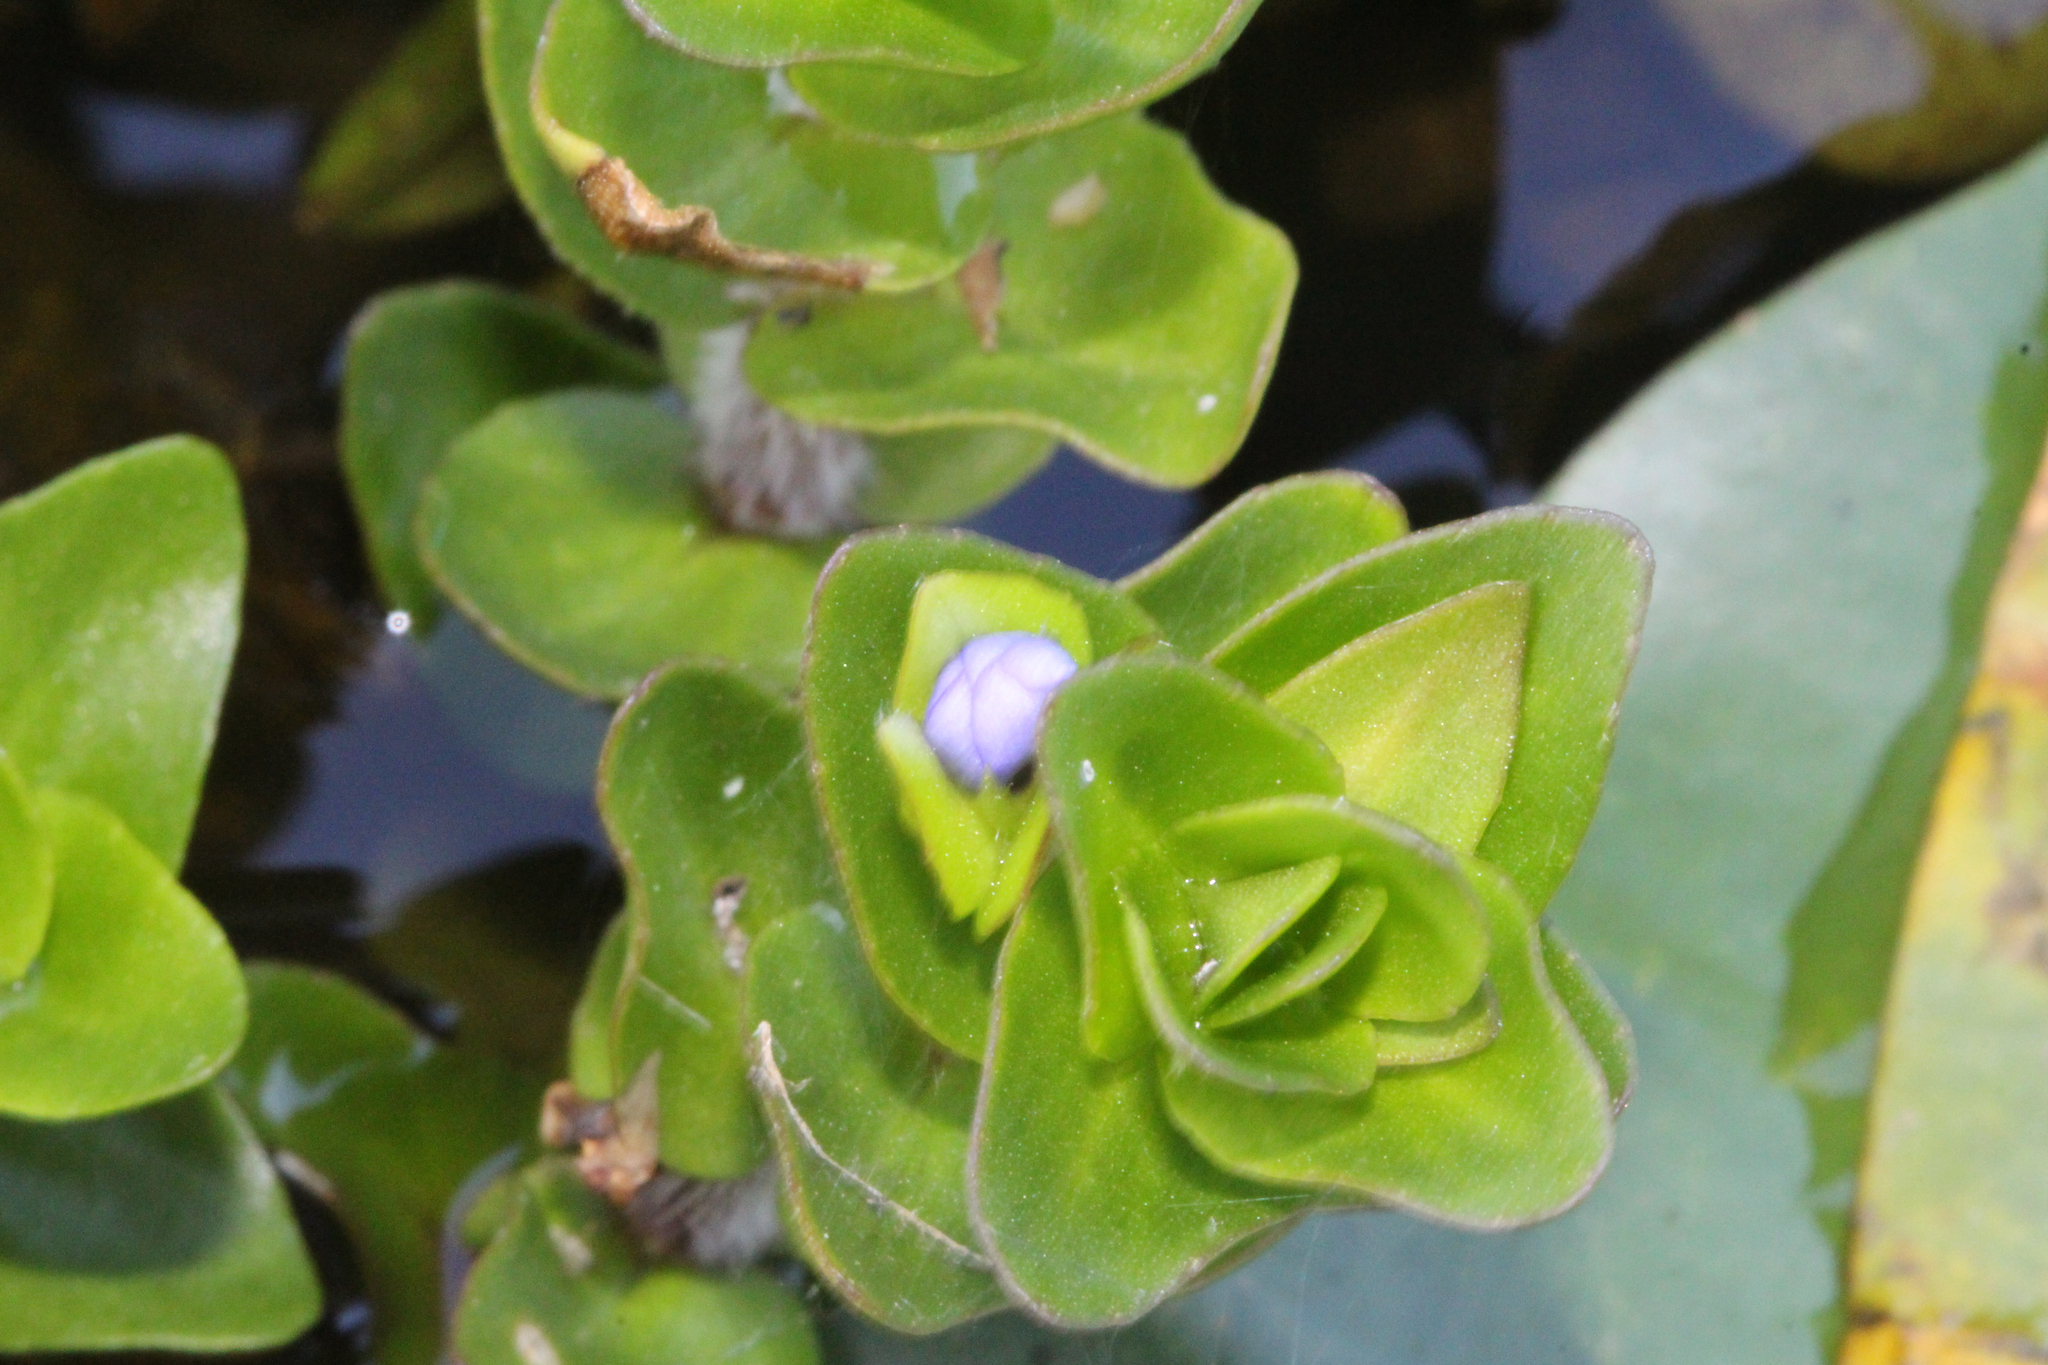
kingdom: Plantae
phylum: Tracheophyta
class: Magnoliopsida
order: Lamiales
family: Plantaginaceae
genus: Bacopa
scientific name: Bacopa caroliniana
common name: Lemon bacopa
